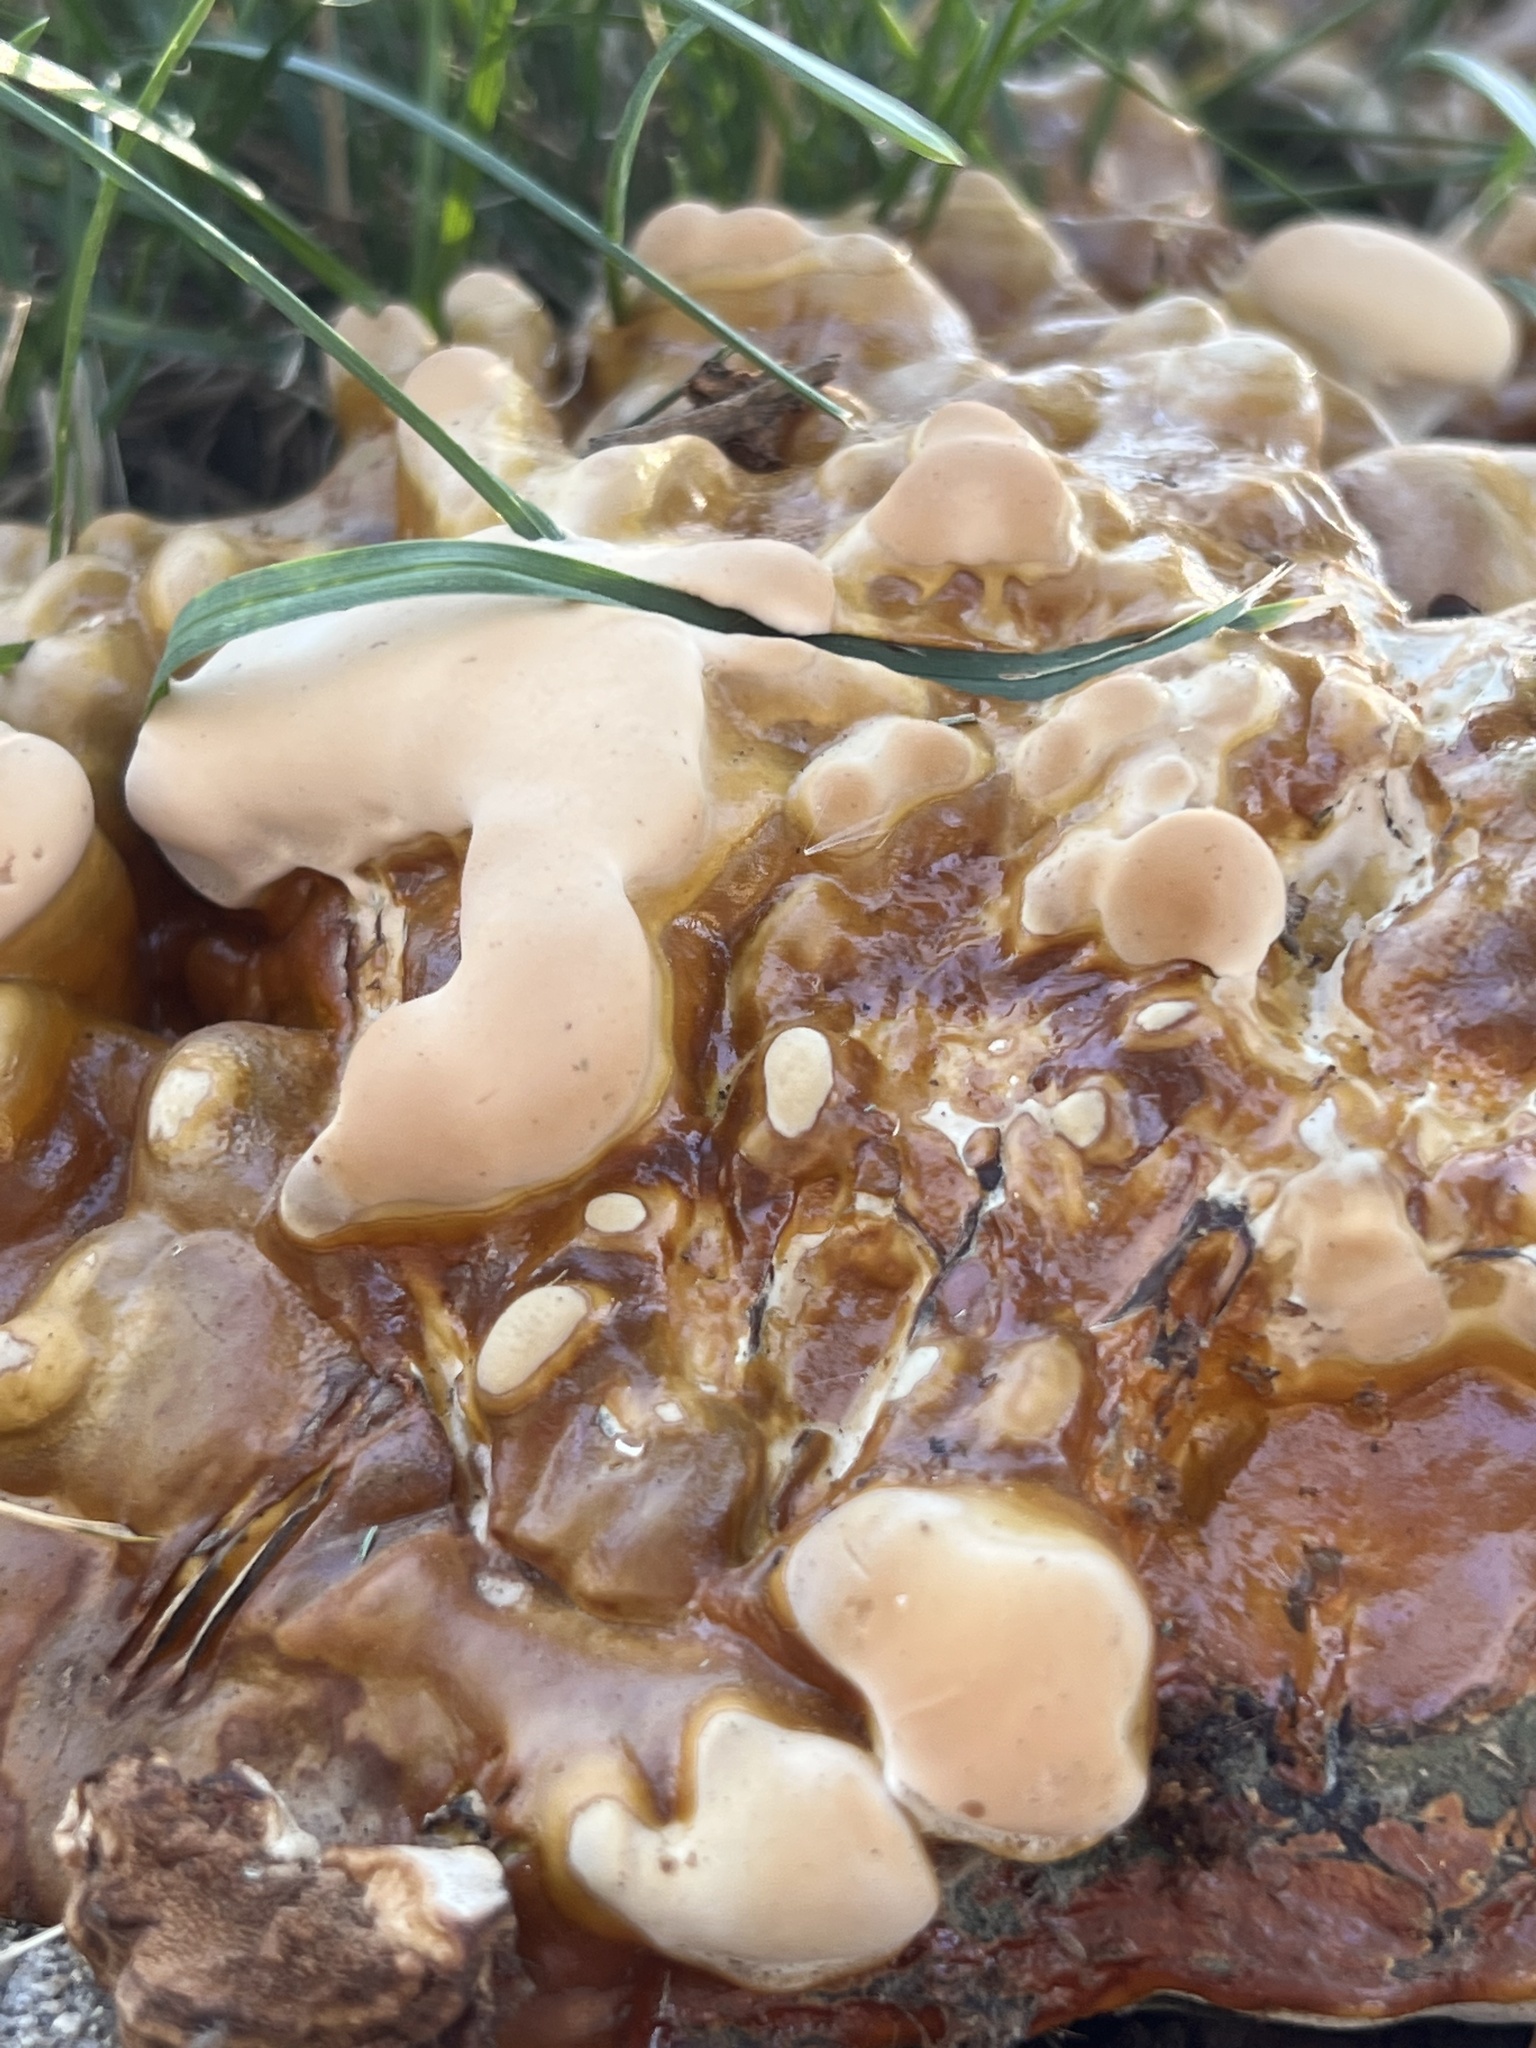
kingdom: Fungi
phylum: Basidiomycota
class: Agaricomycetes
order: Polyporales
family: Polyporaceae
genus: Ganoderma
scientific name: Ganoderma resinaceum
